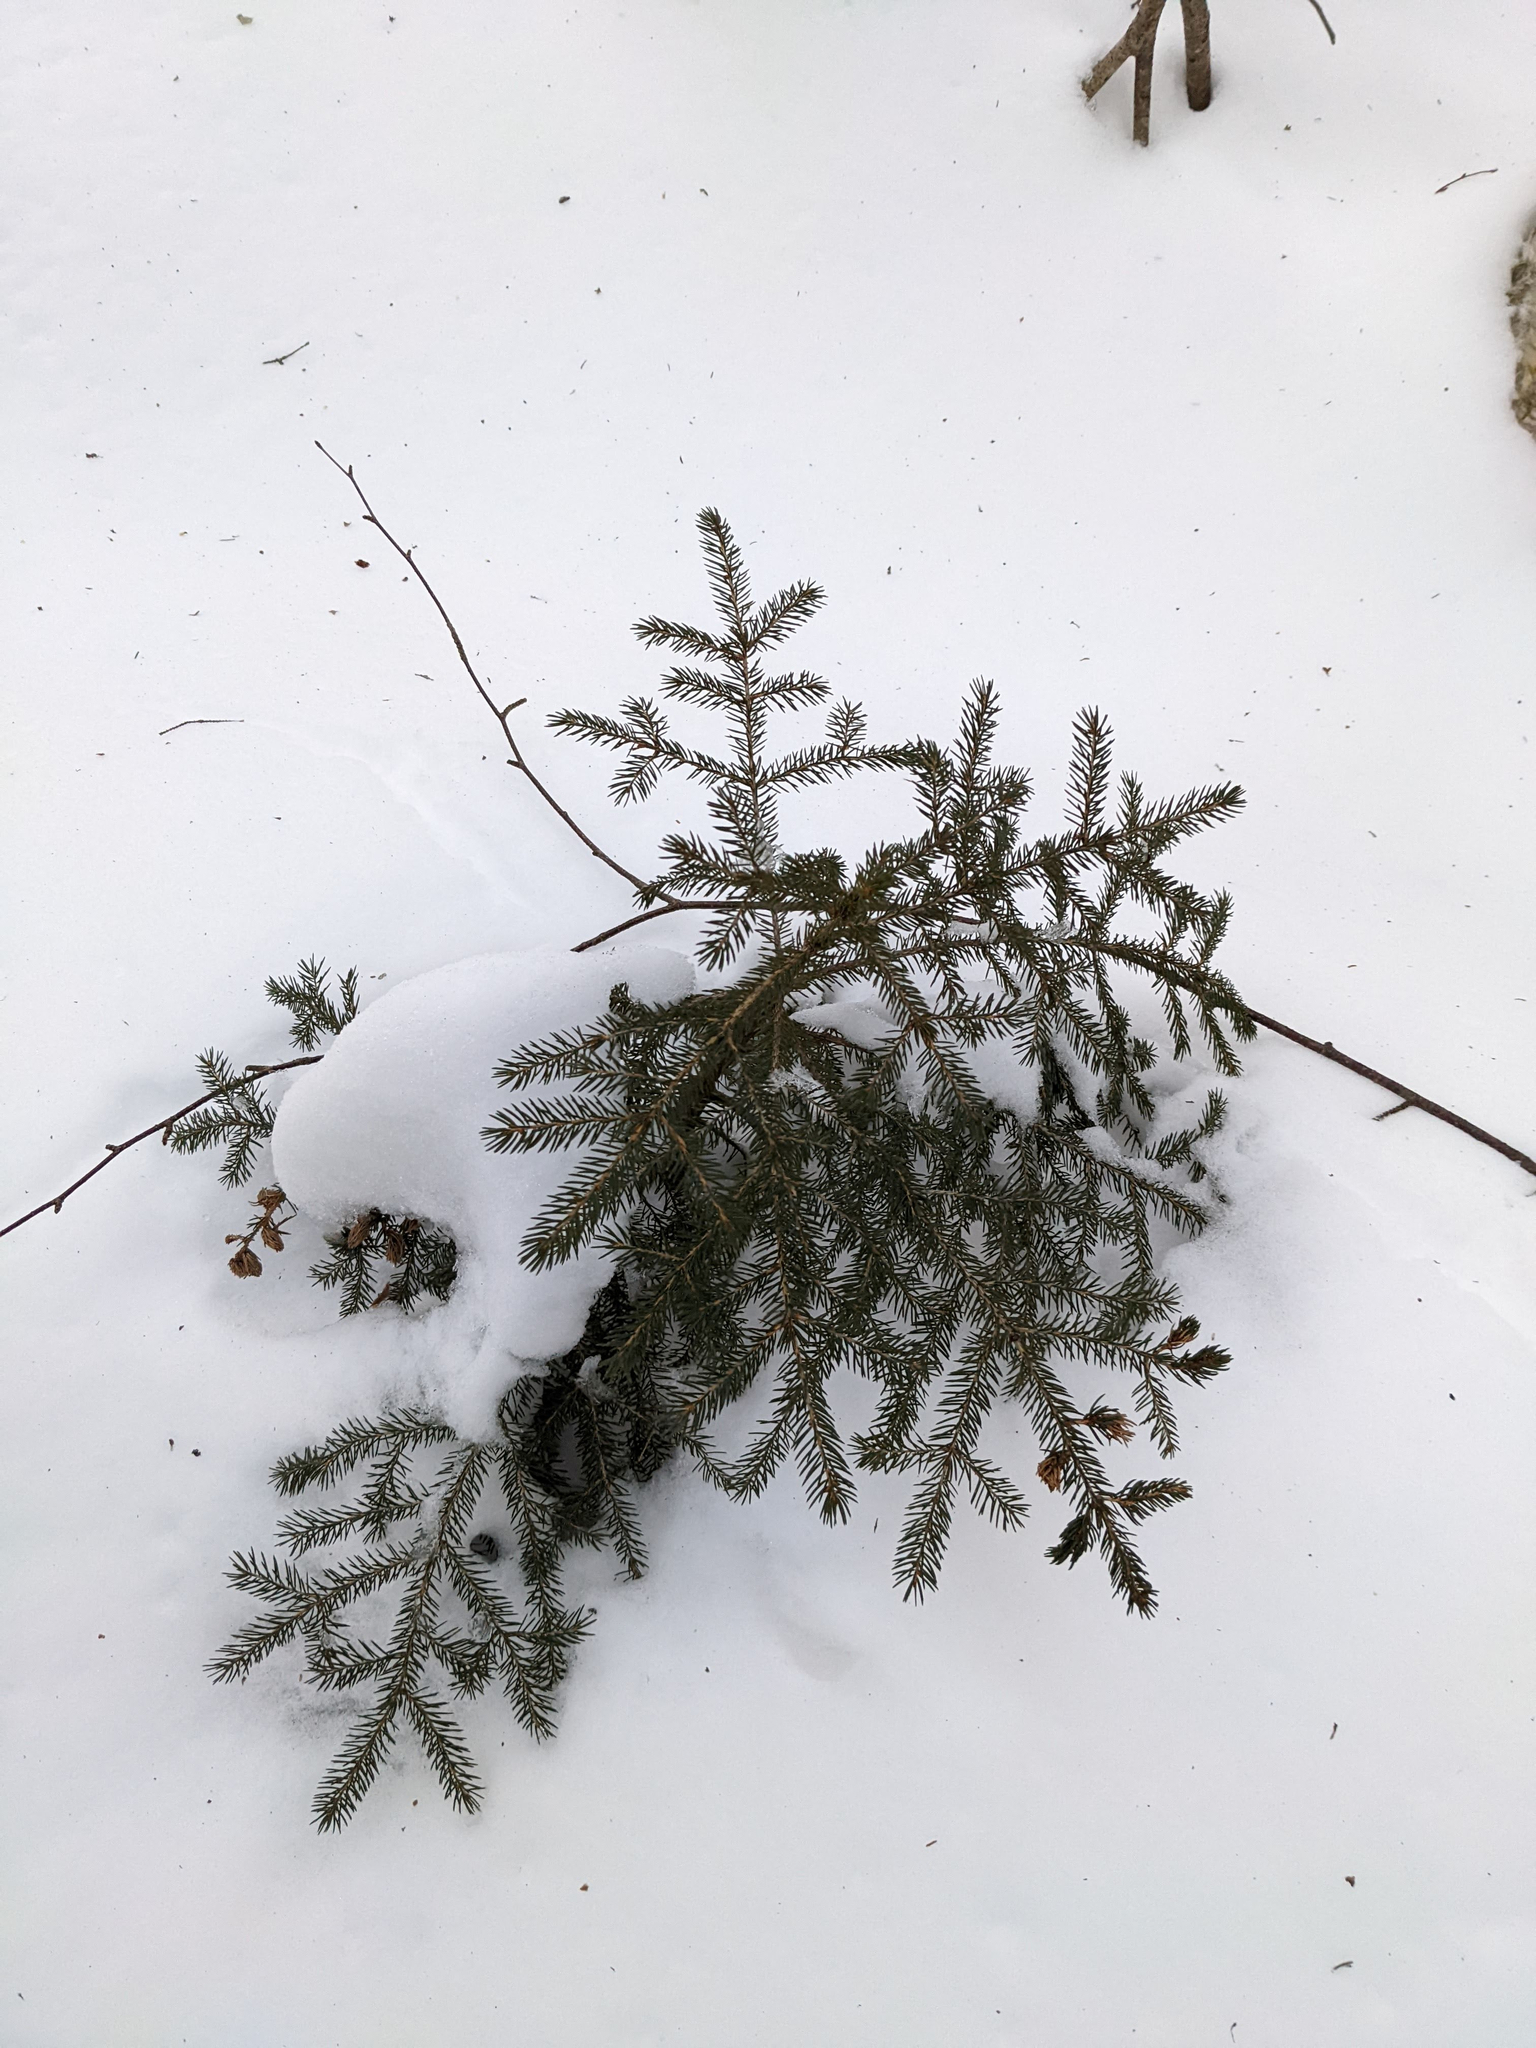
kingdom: Plantae
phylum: Tracheophyta
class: Pinopsida
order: Pinales
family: Pinaceae
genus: Picea
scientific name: Picea rubens
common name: Red spruce
